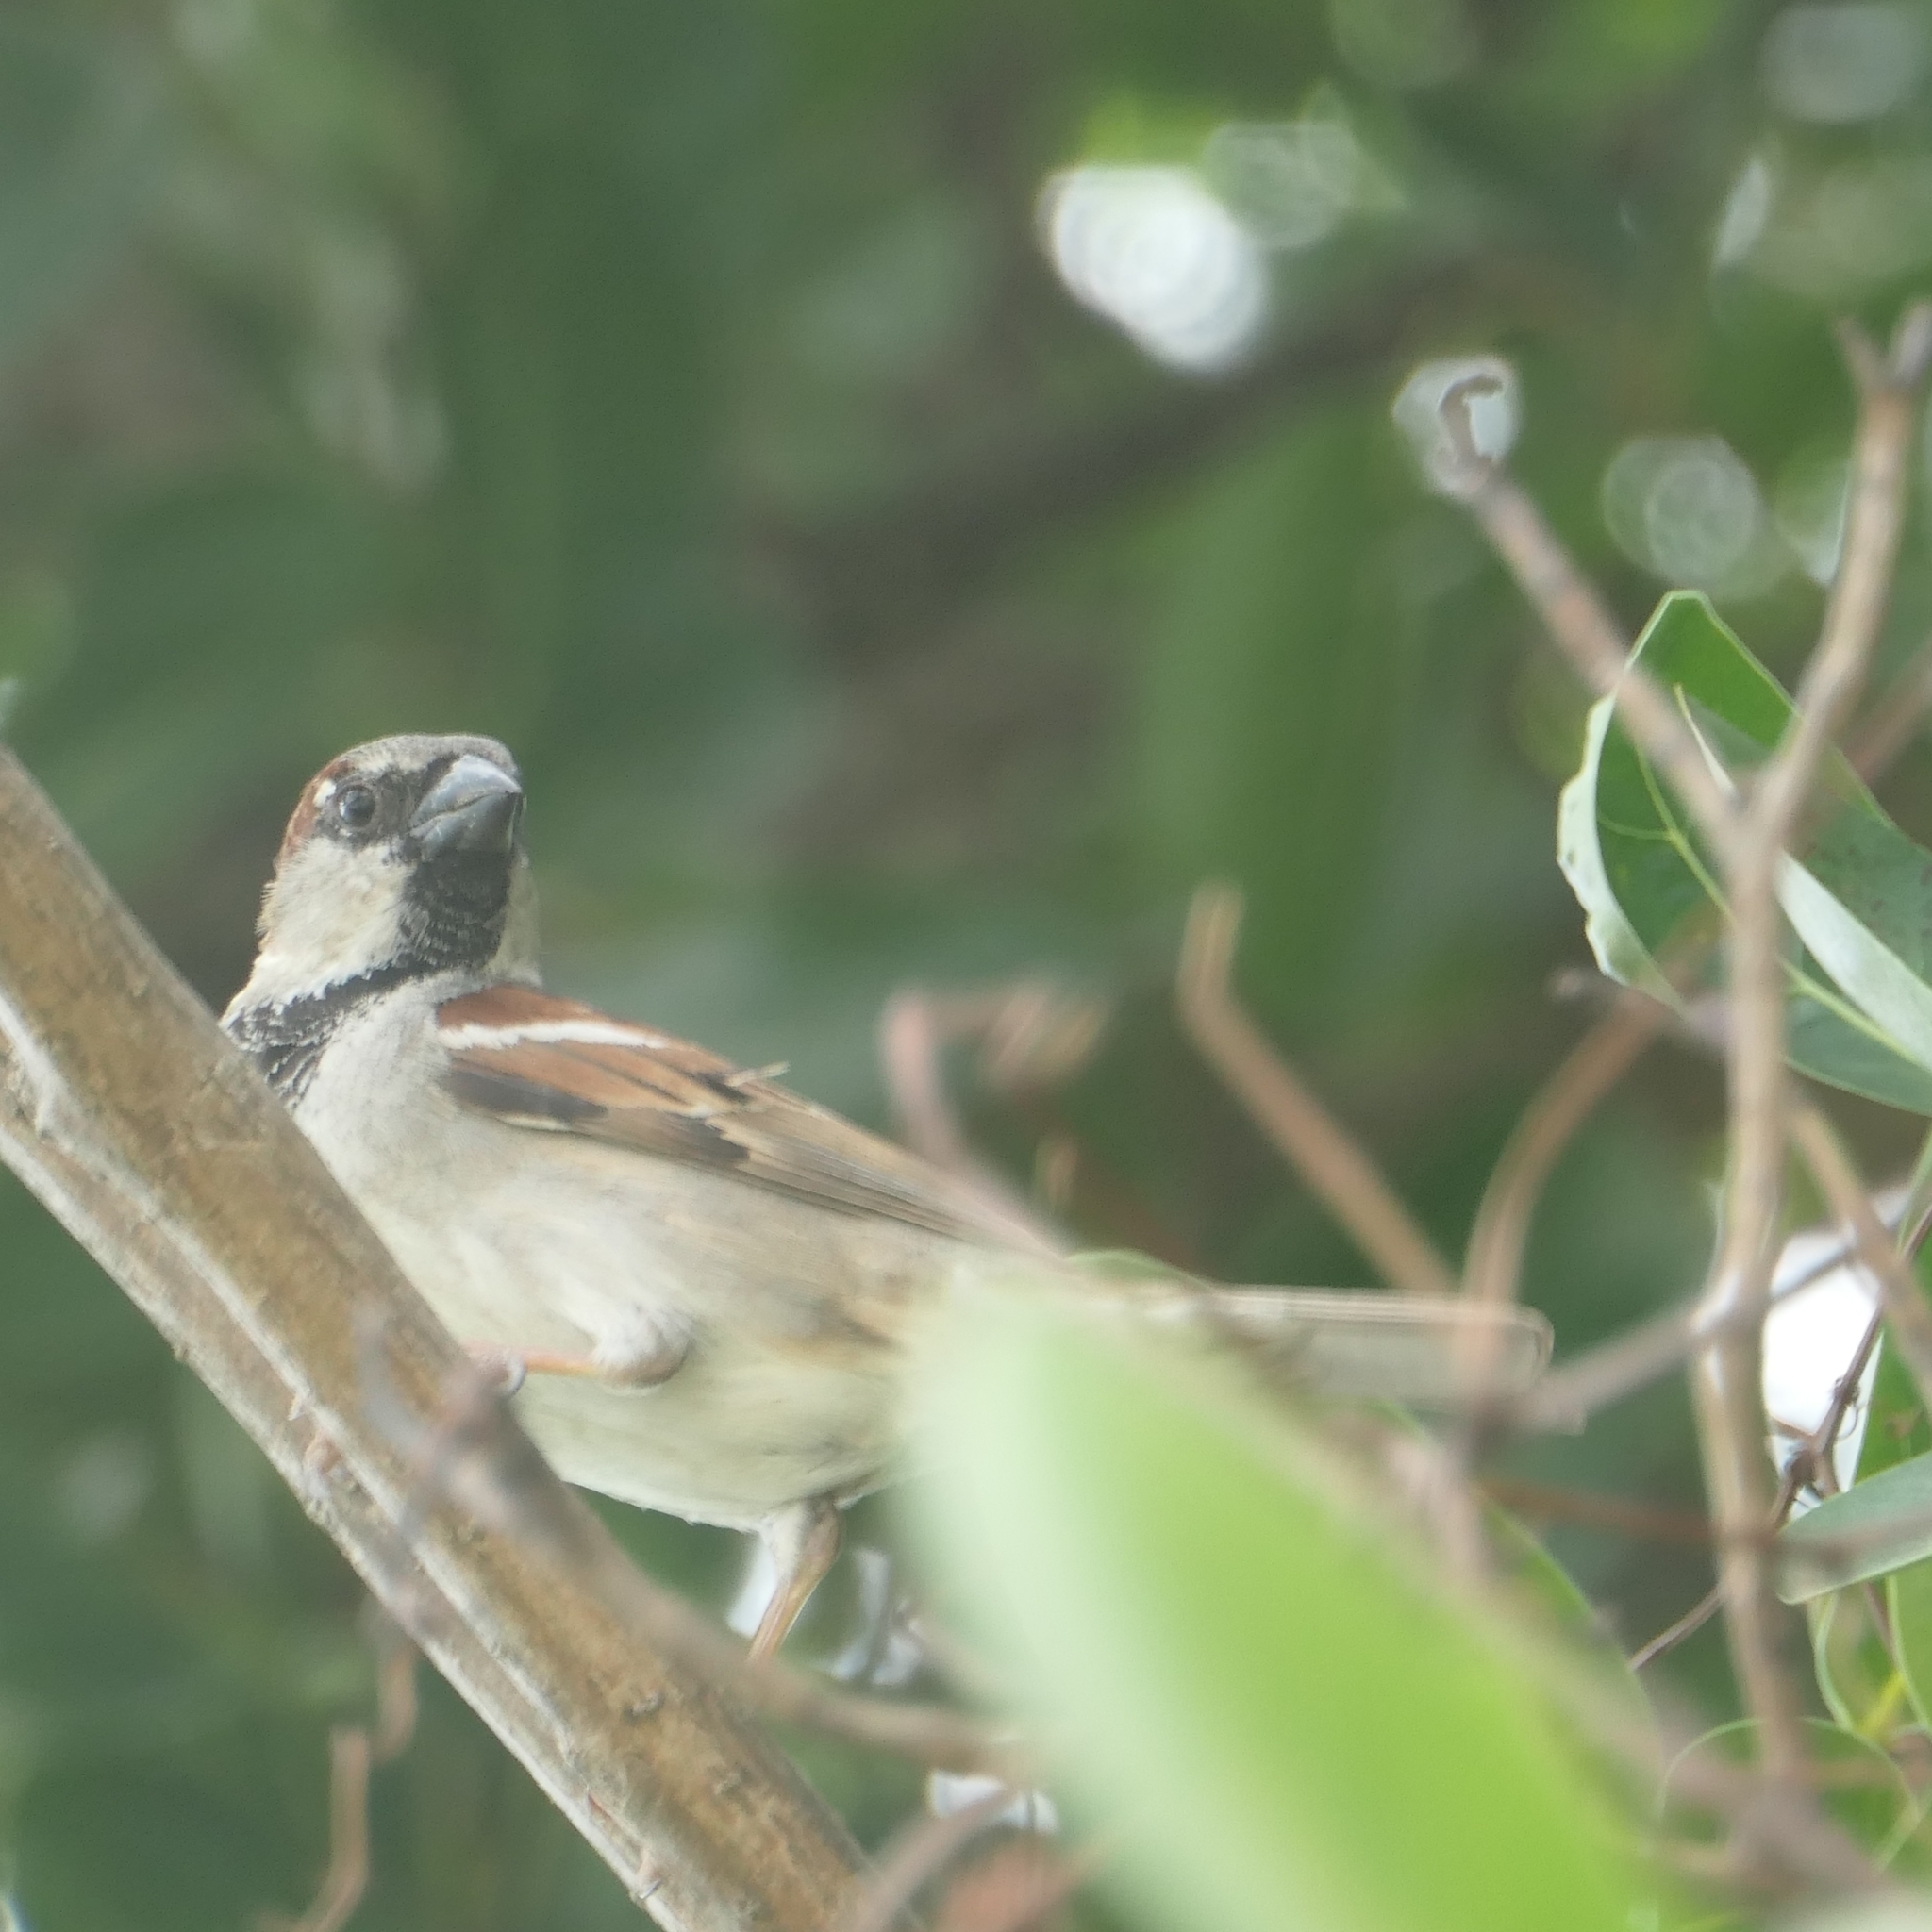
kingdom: Animalia
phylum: Chordata
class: Aves
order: Passeriformes
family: Passeridae
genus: Passer
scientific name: Passer domesticus
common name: House sparrow
